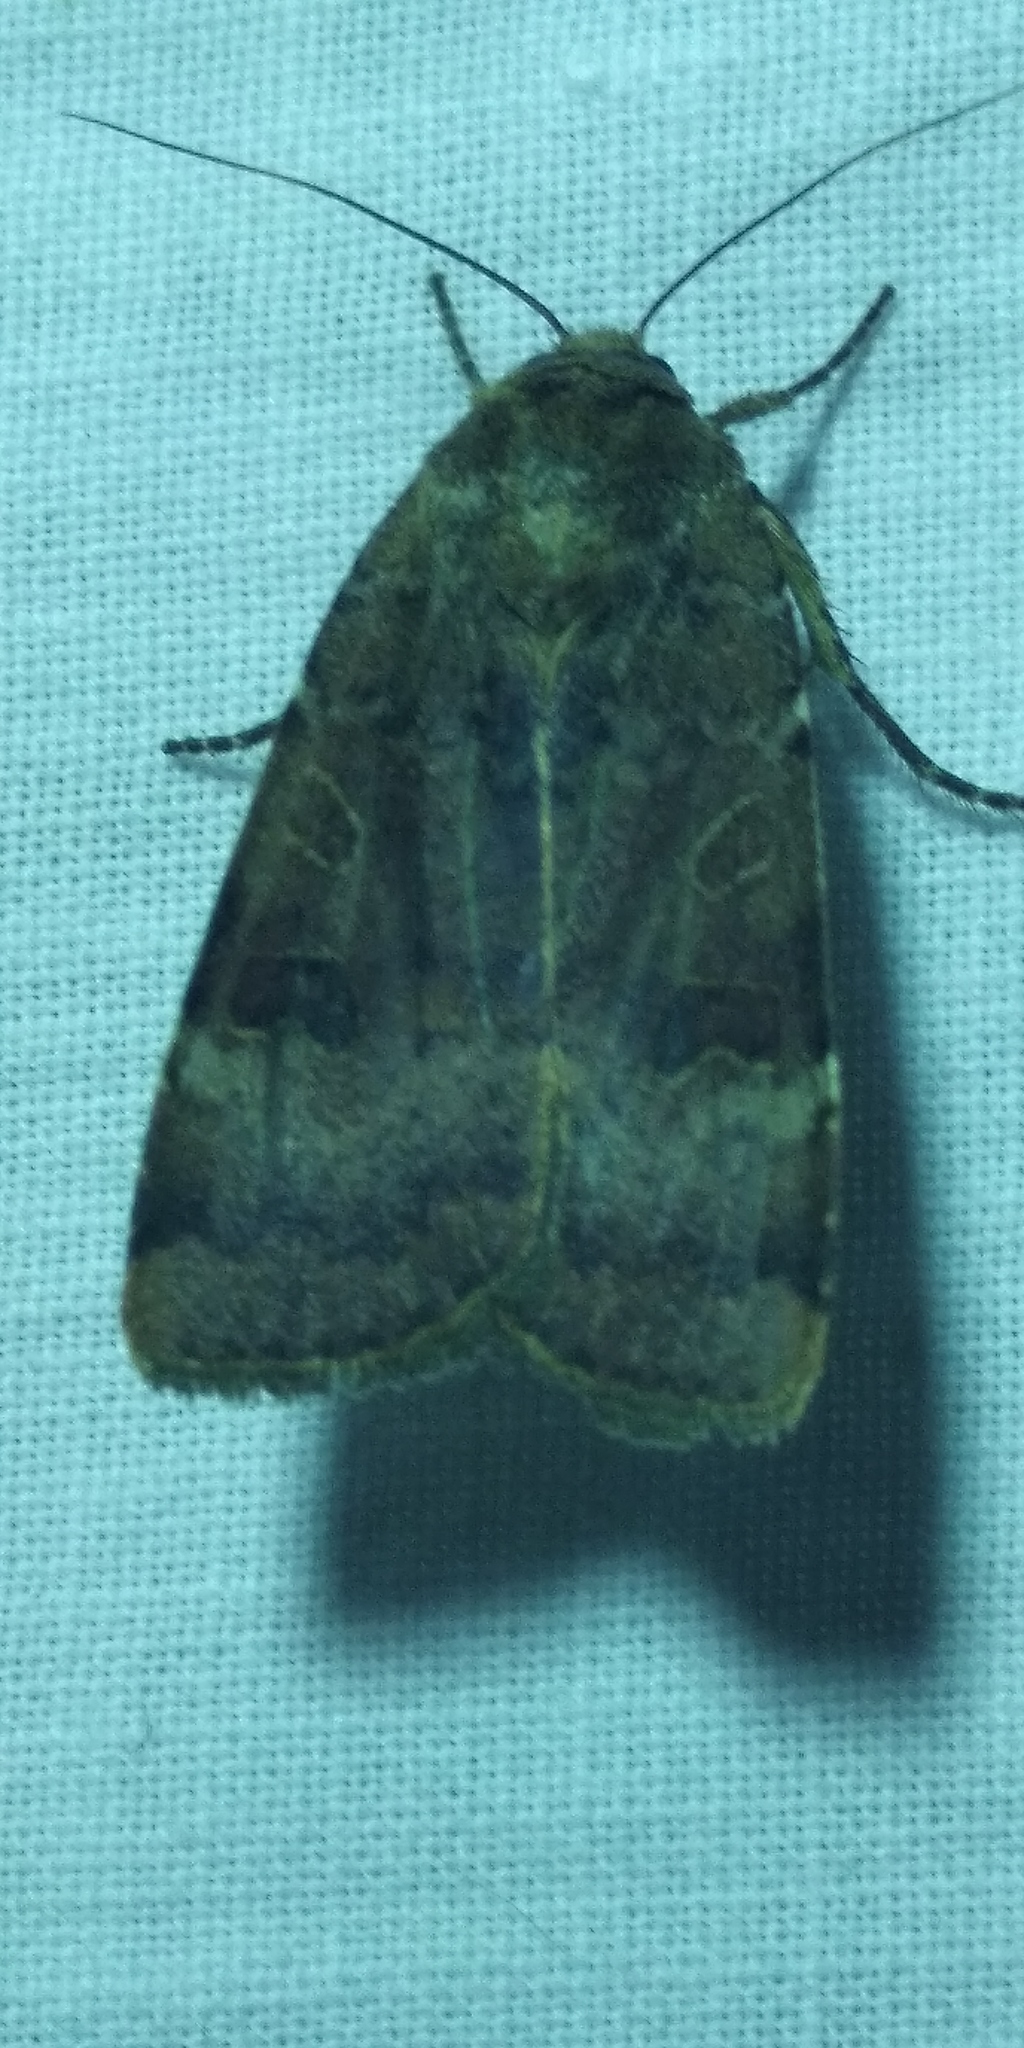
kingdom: Animalia
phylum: Arthropoda
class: Insecta
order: Lepidoptera
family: Noctuidae
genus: Noctua
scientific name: Noctua interposita
